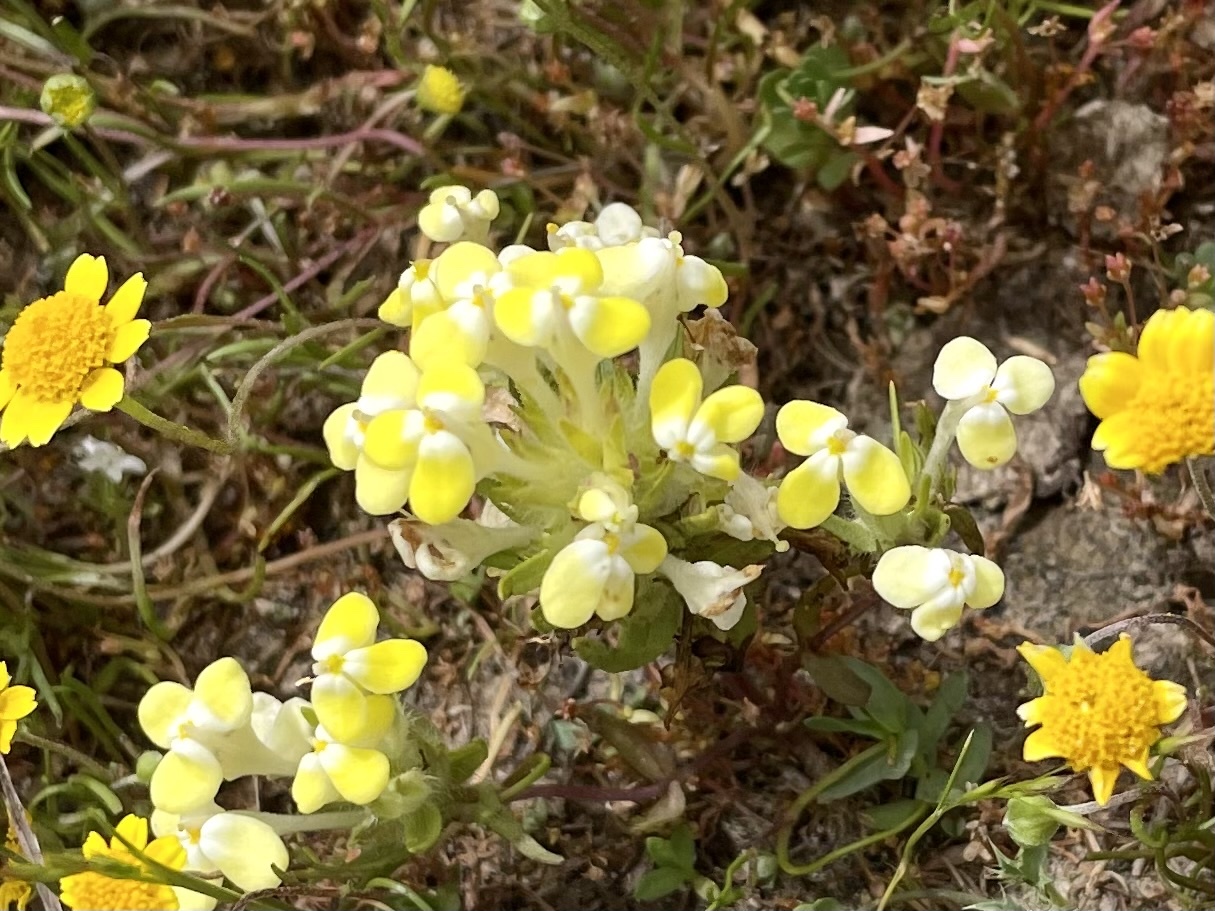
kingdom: Plantae
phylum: Tracheophyta
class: Magnoliopsida
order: Lamiales
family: Orobanchaceae
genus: Castilleja
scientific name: Castilleja campestris
